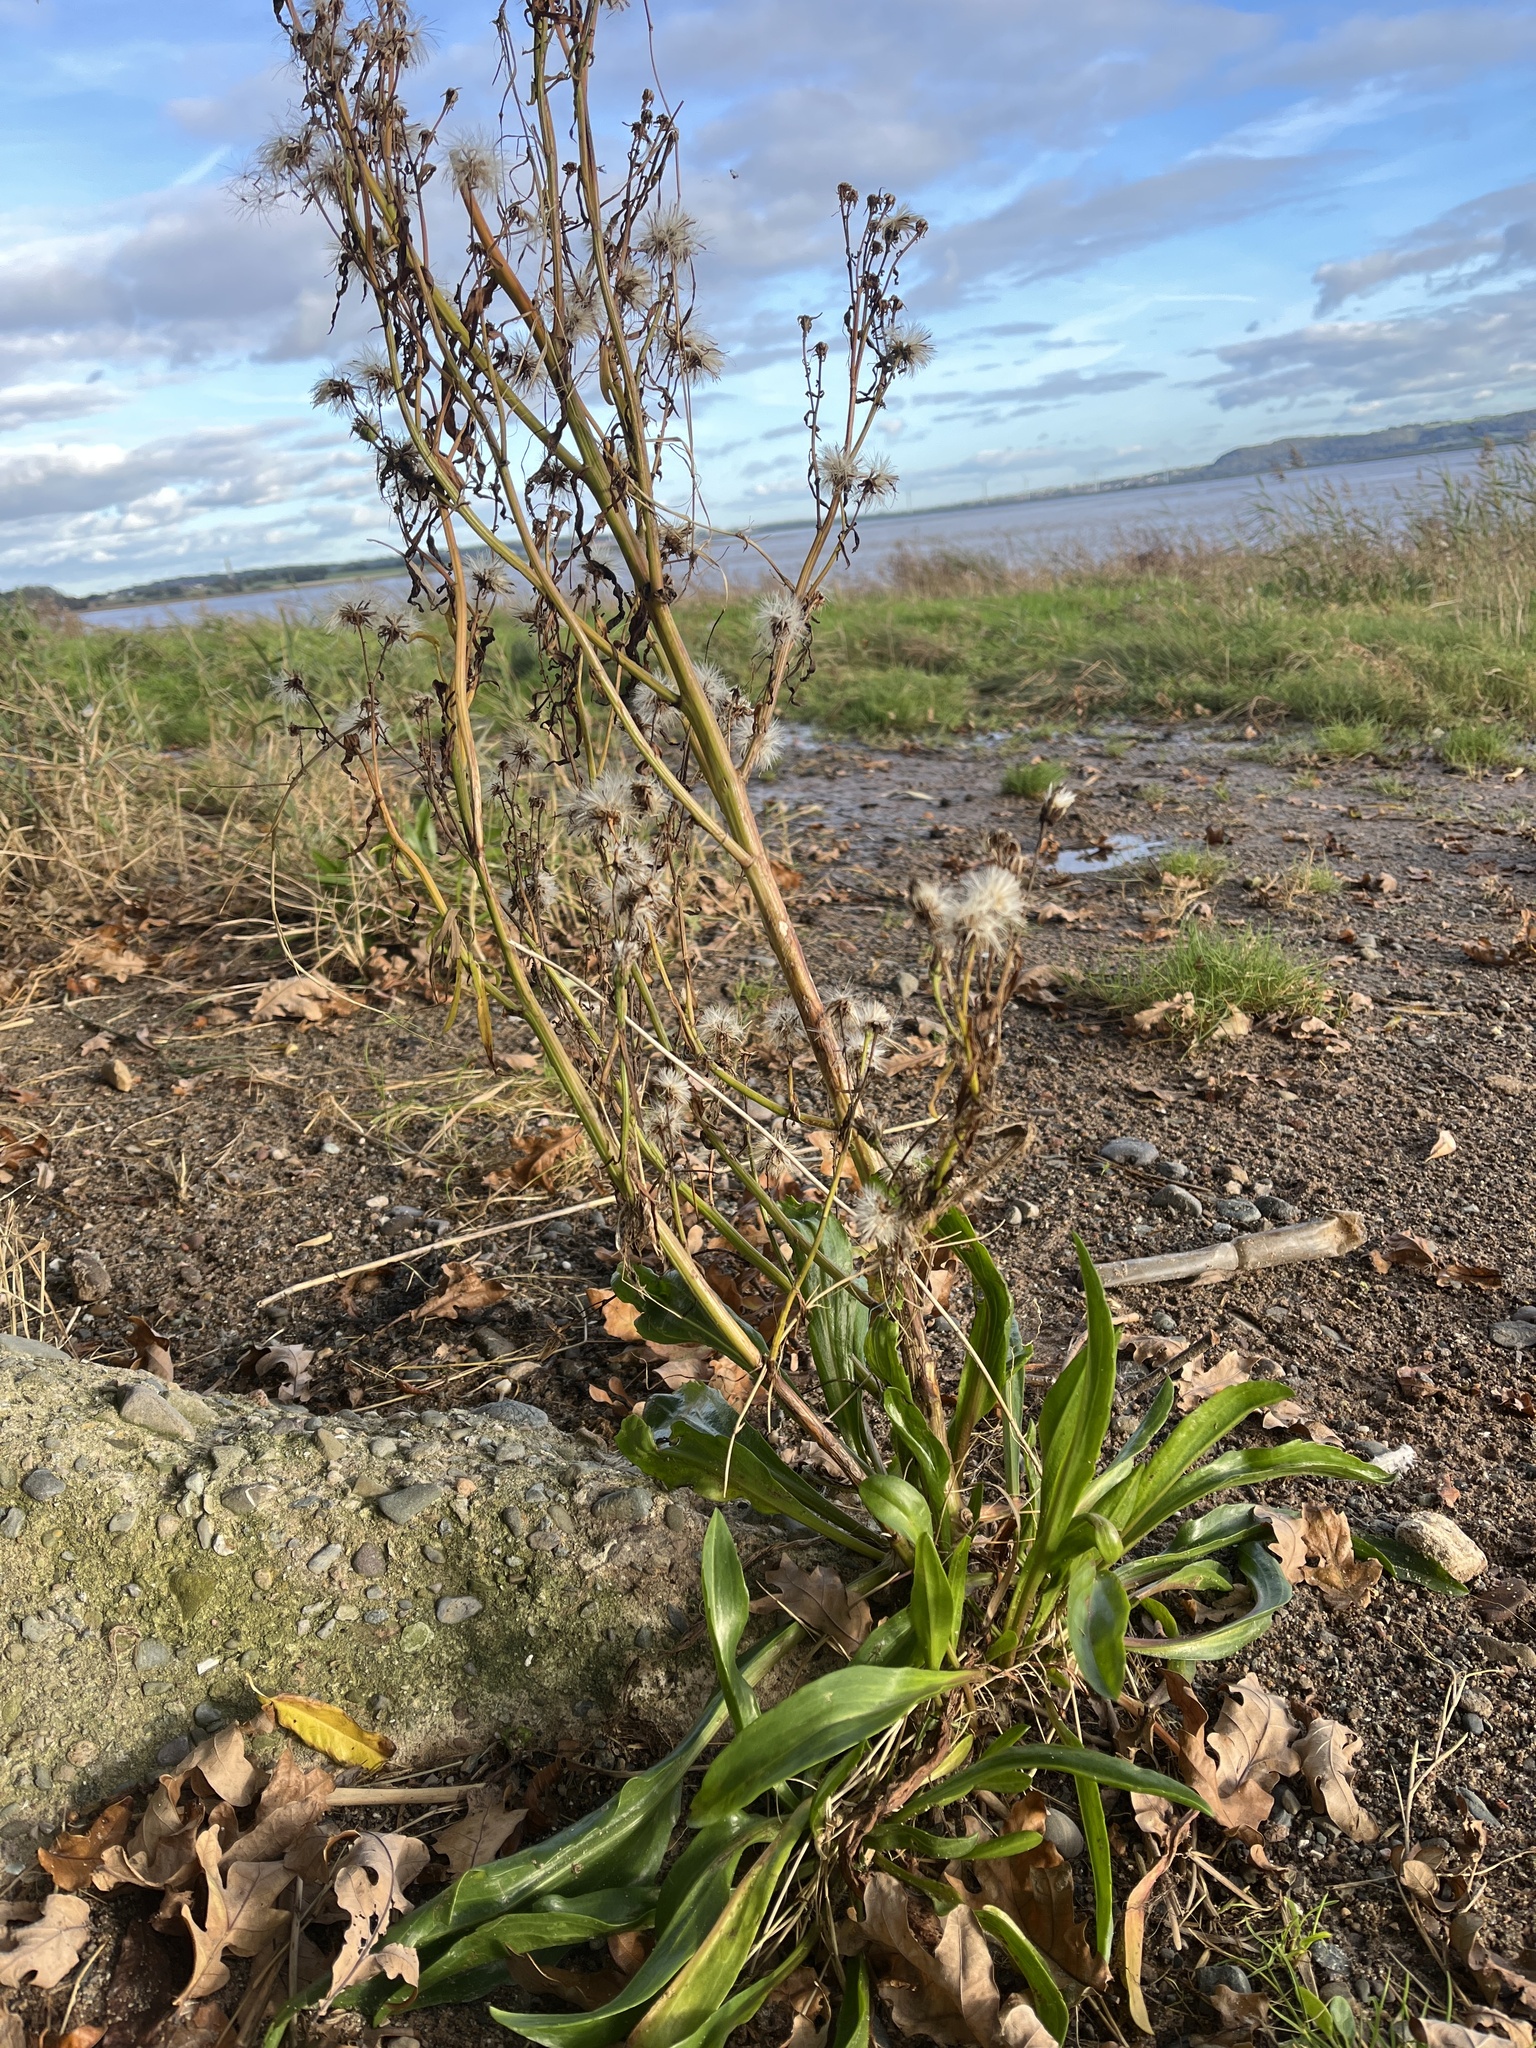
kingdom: Plantae
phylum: Tracheophyta
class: Magnoliopsida
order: Asterales
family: Asteraceae
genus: Tripolium
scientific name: Tripolium pannonicum
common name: Sea aster
